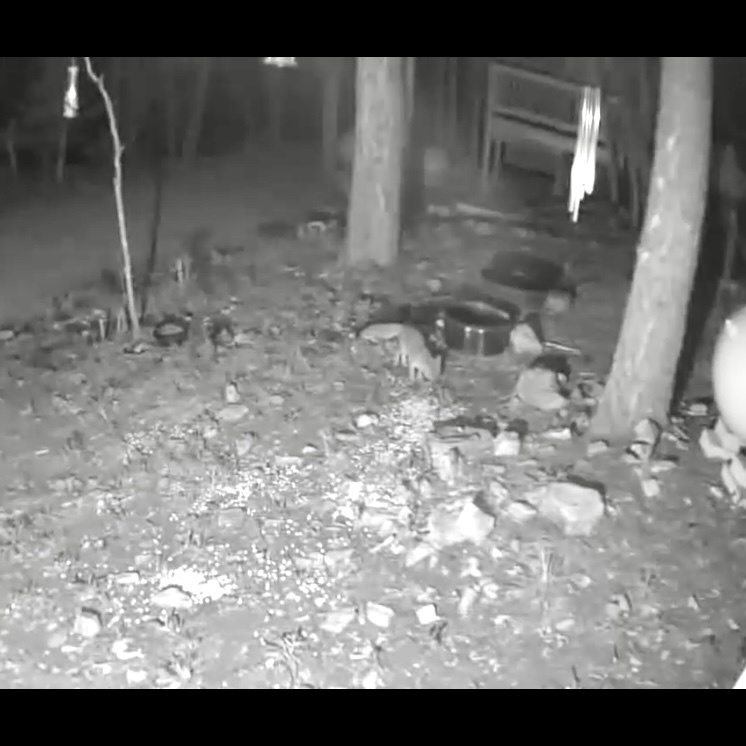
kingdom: Animalia
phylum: Chordata
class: Mammalia
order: Carnivora
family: Canidae
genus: Urocyon
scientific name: Urocyon cinereoargenteus
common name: Gray fox
